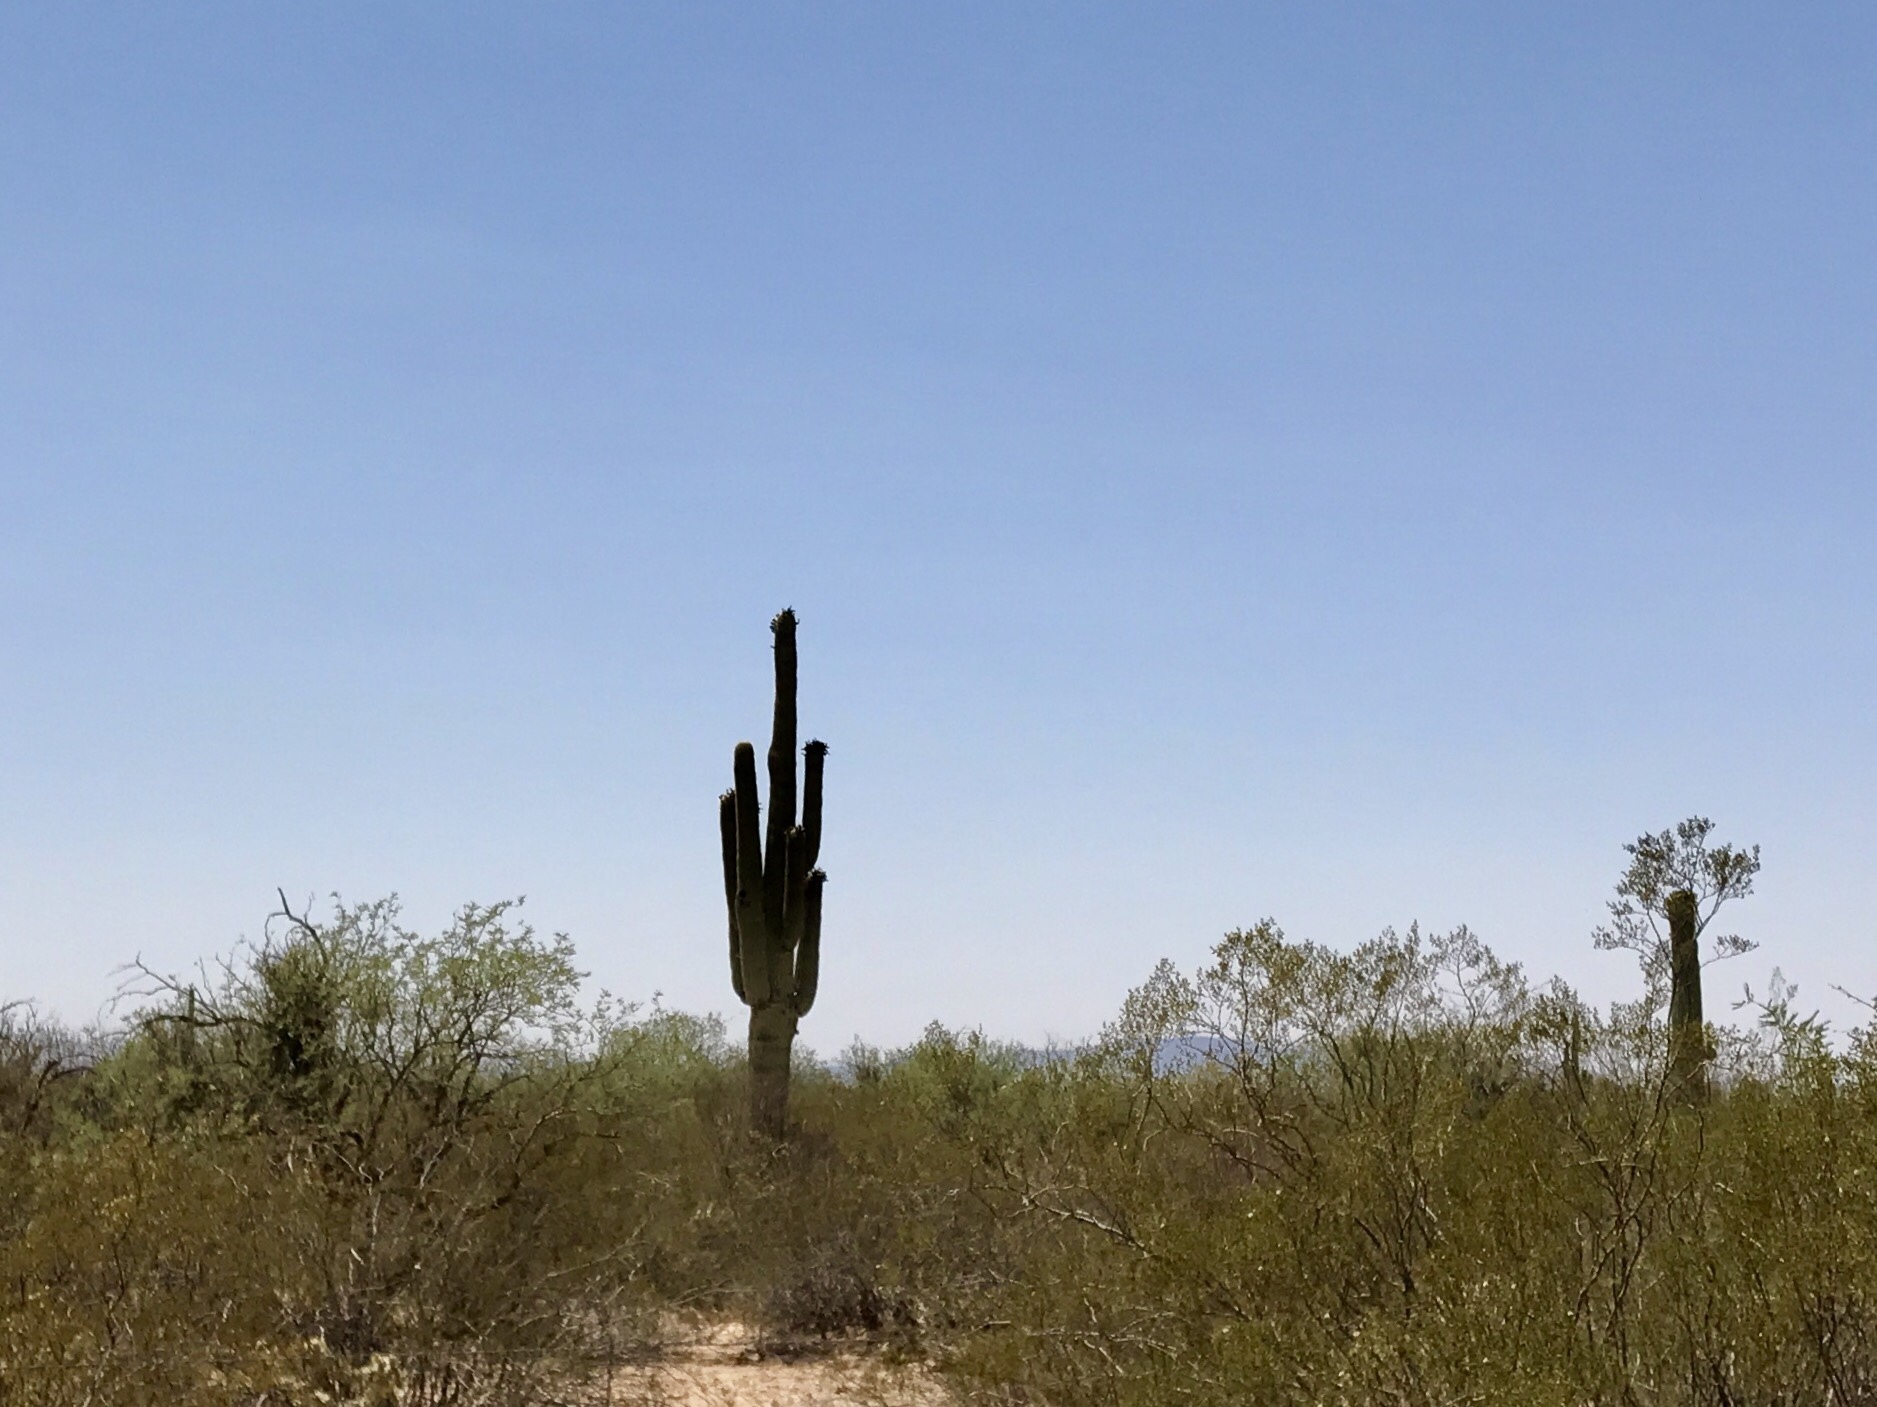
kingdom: Plantae
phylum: Tracheophyta
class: Magnoliopsida
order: Caryophyllales
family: Cactaceae
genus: Carnegiea
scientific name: Carnegiea gigantea
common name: Saguaro
